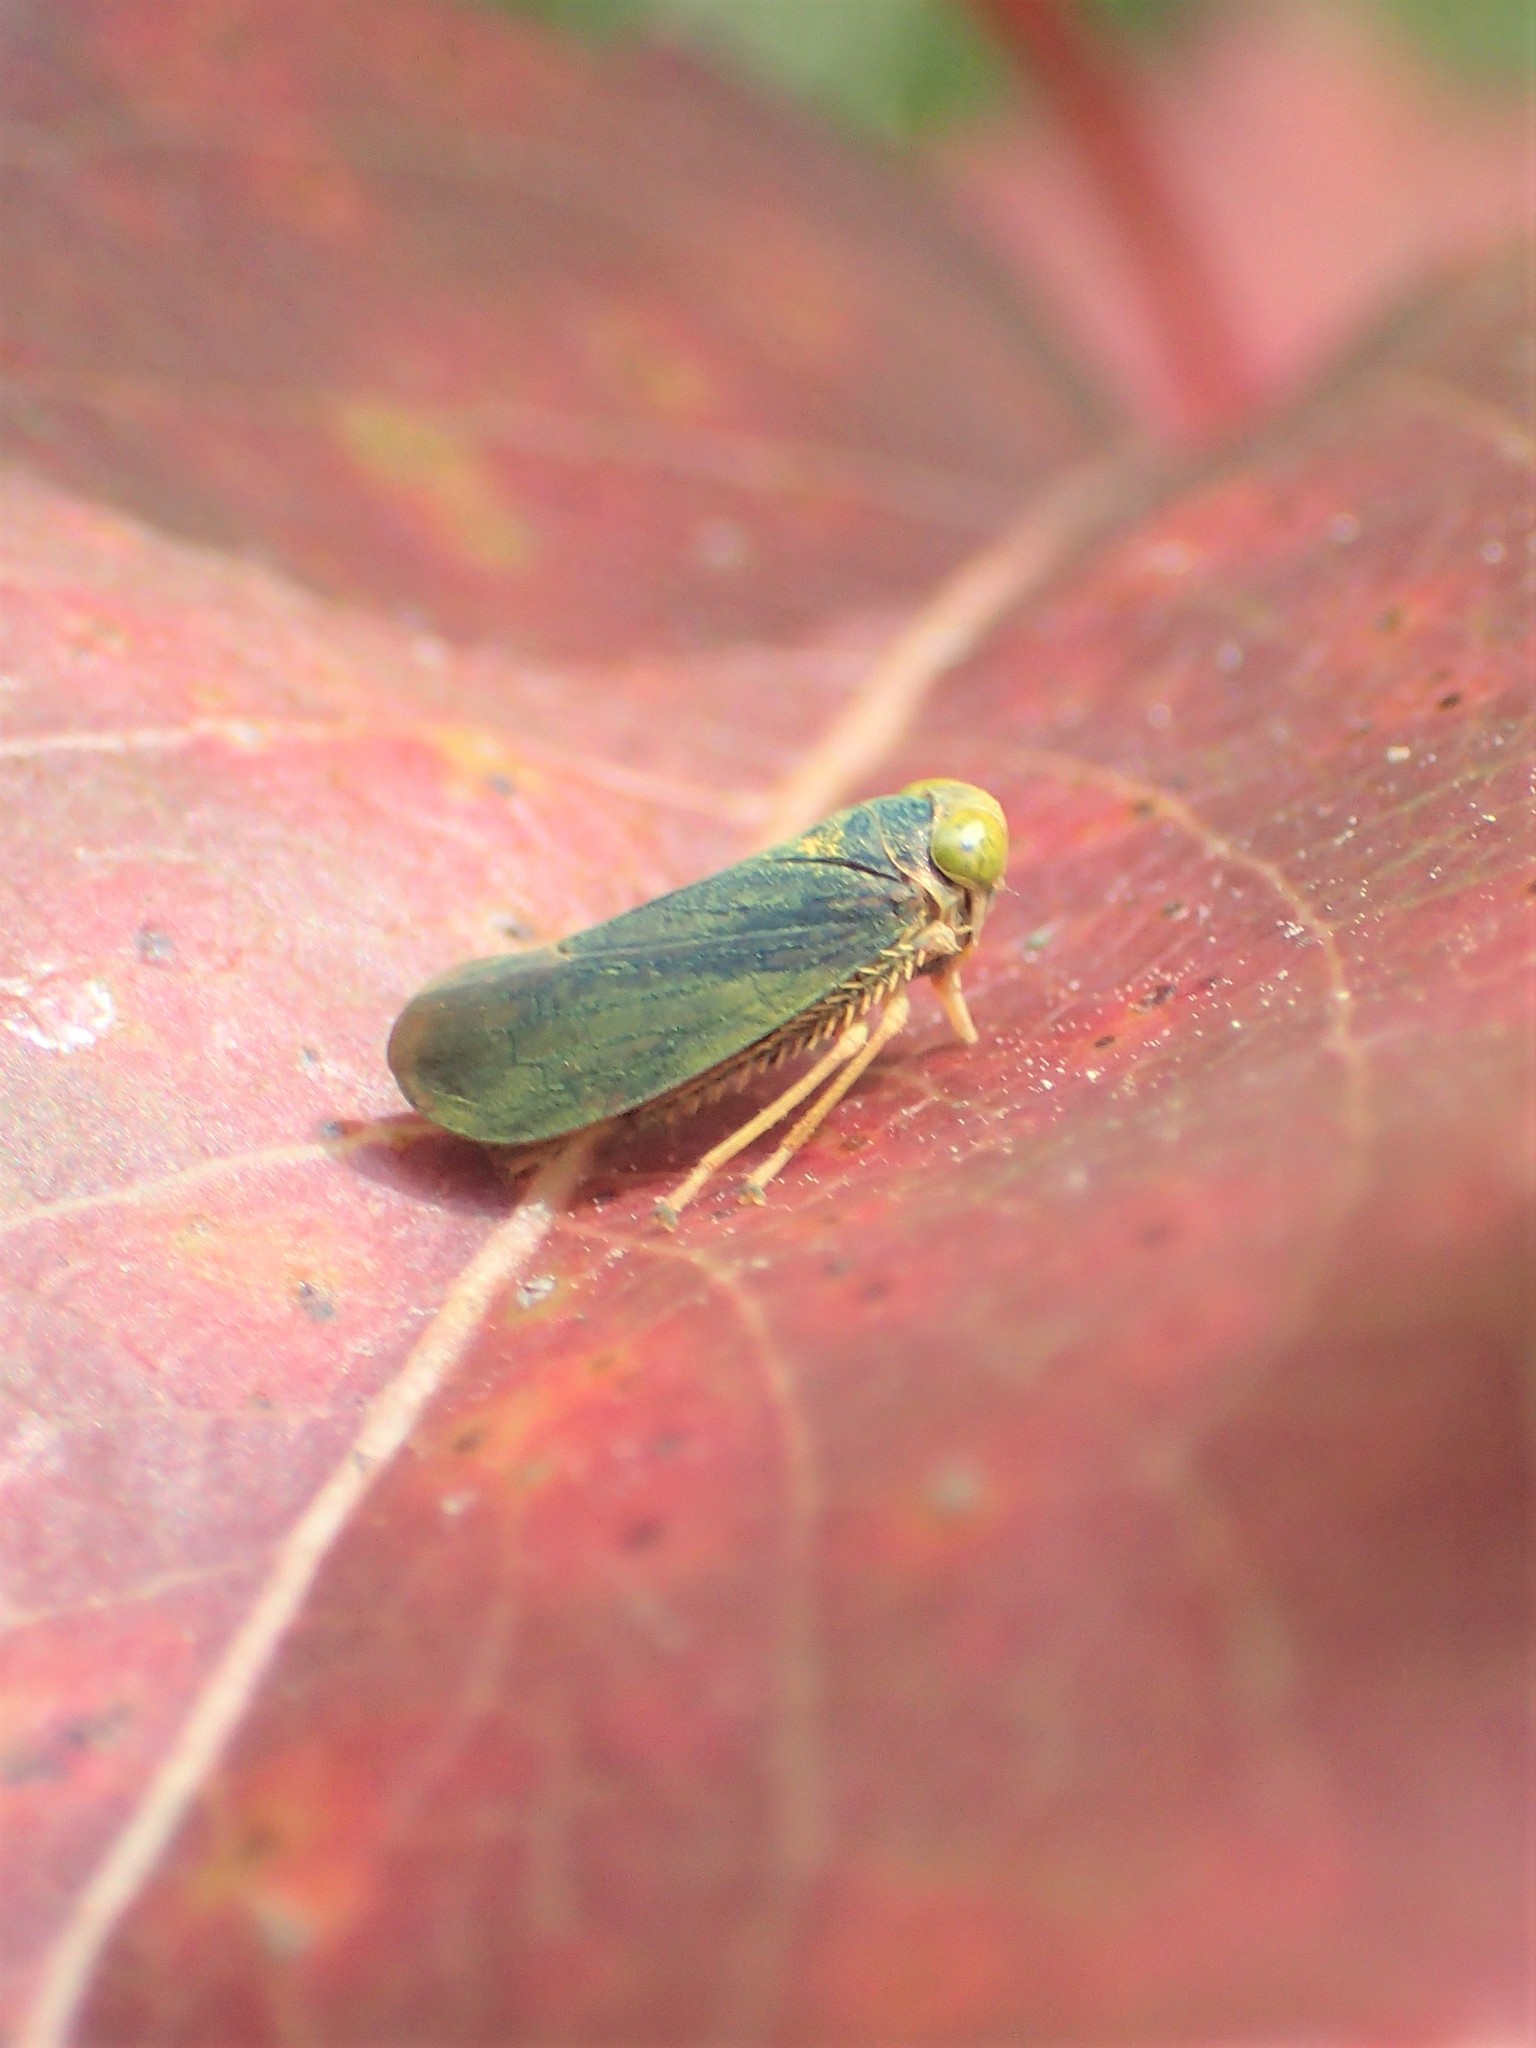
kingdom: Animalia
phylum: Arthropoda
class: Insecta
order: Hemiptera
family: Cicadellidae
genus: Jikradia
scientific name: Jikradia olitoria
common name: Coppery leafhopper
